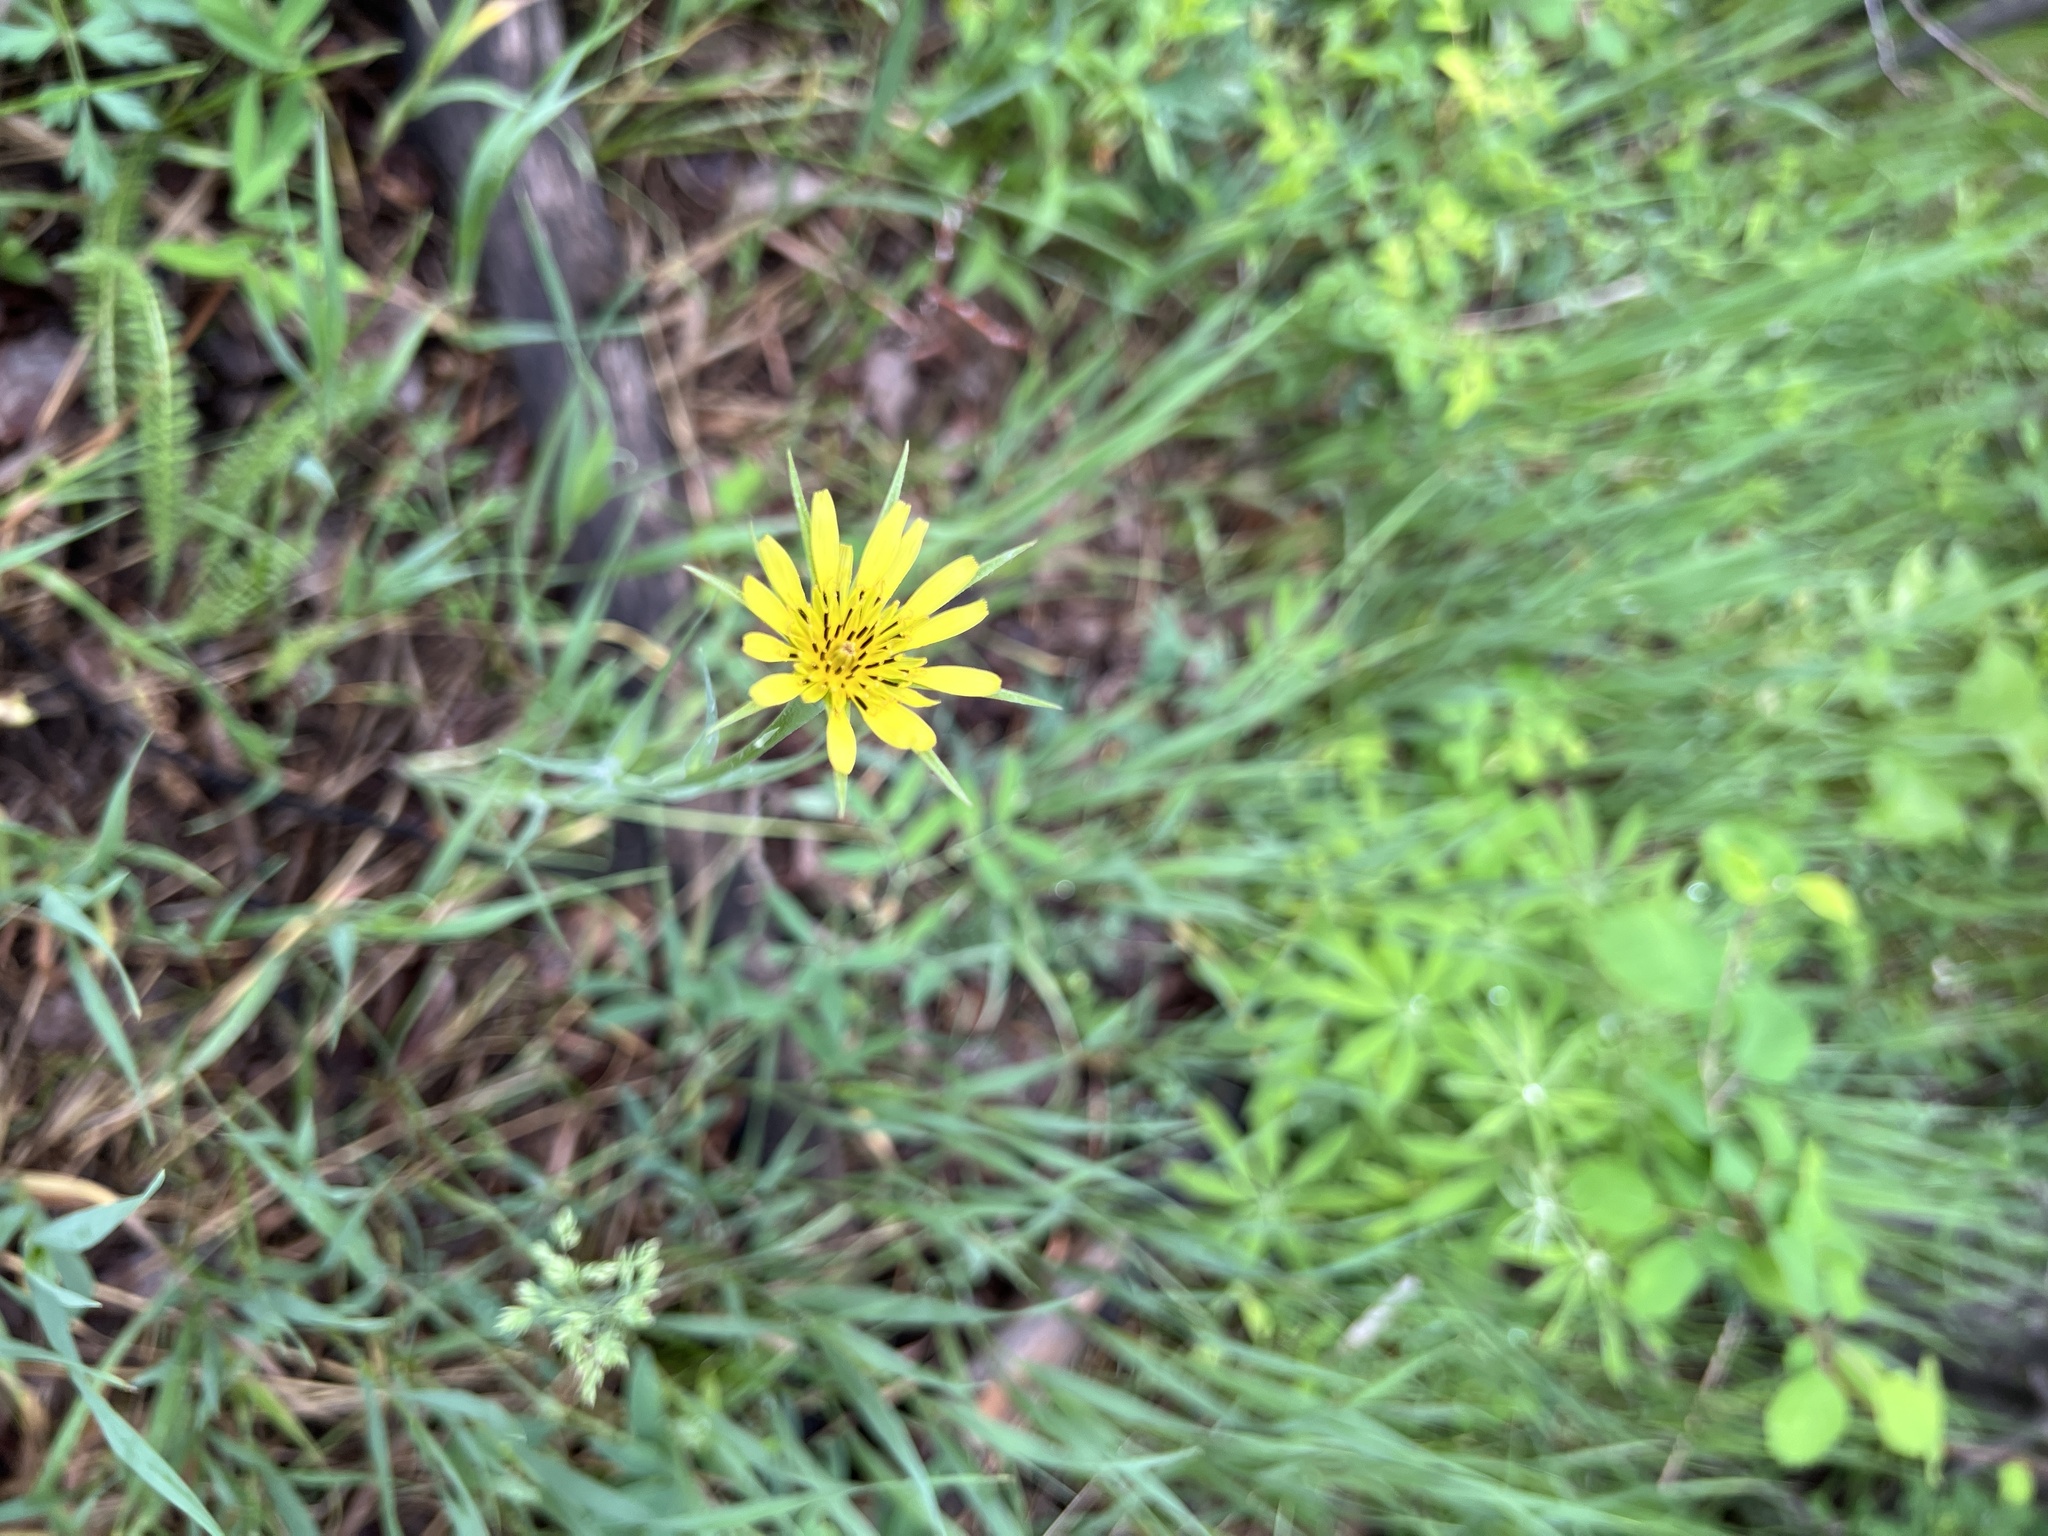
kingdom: Plantae
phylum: Tracheophyta
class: Magnoliopsida
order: Asterales
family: Asteraceae
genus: Tragopogon
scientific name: Tragopogon dubius
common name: Yellow salsify
